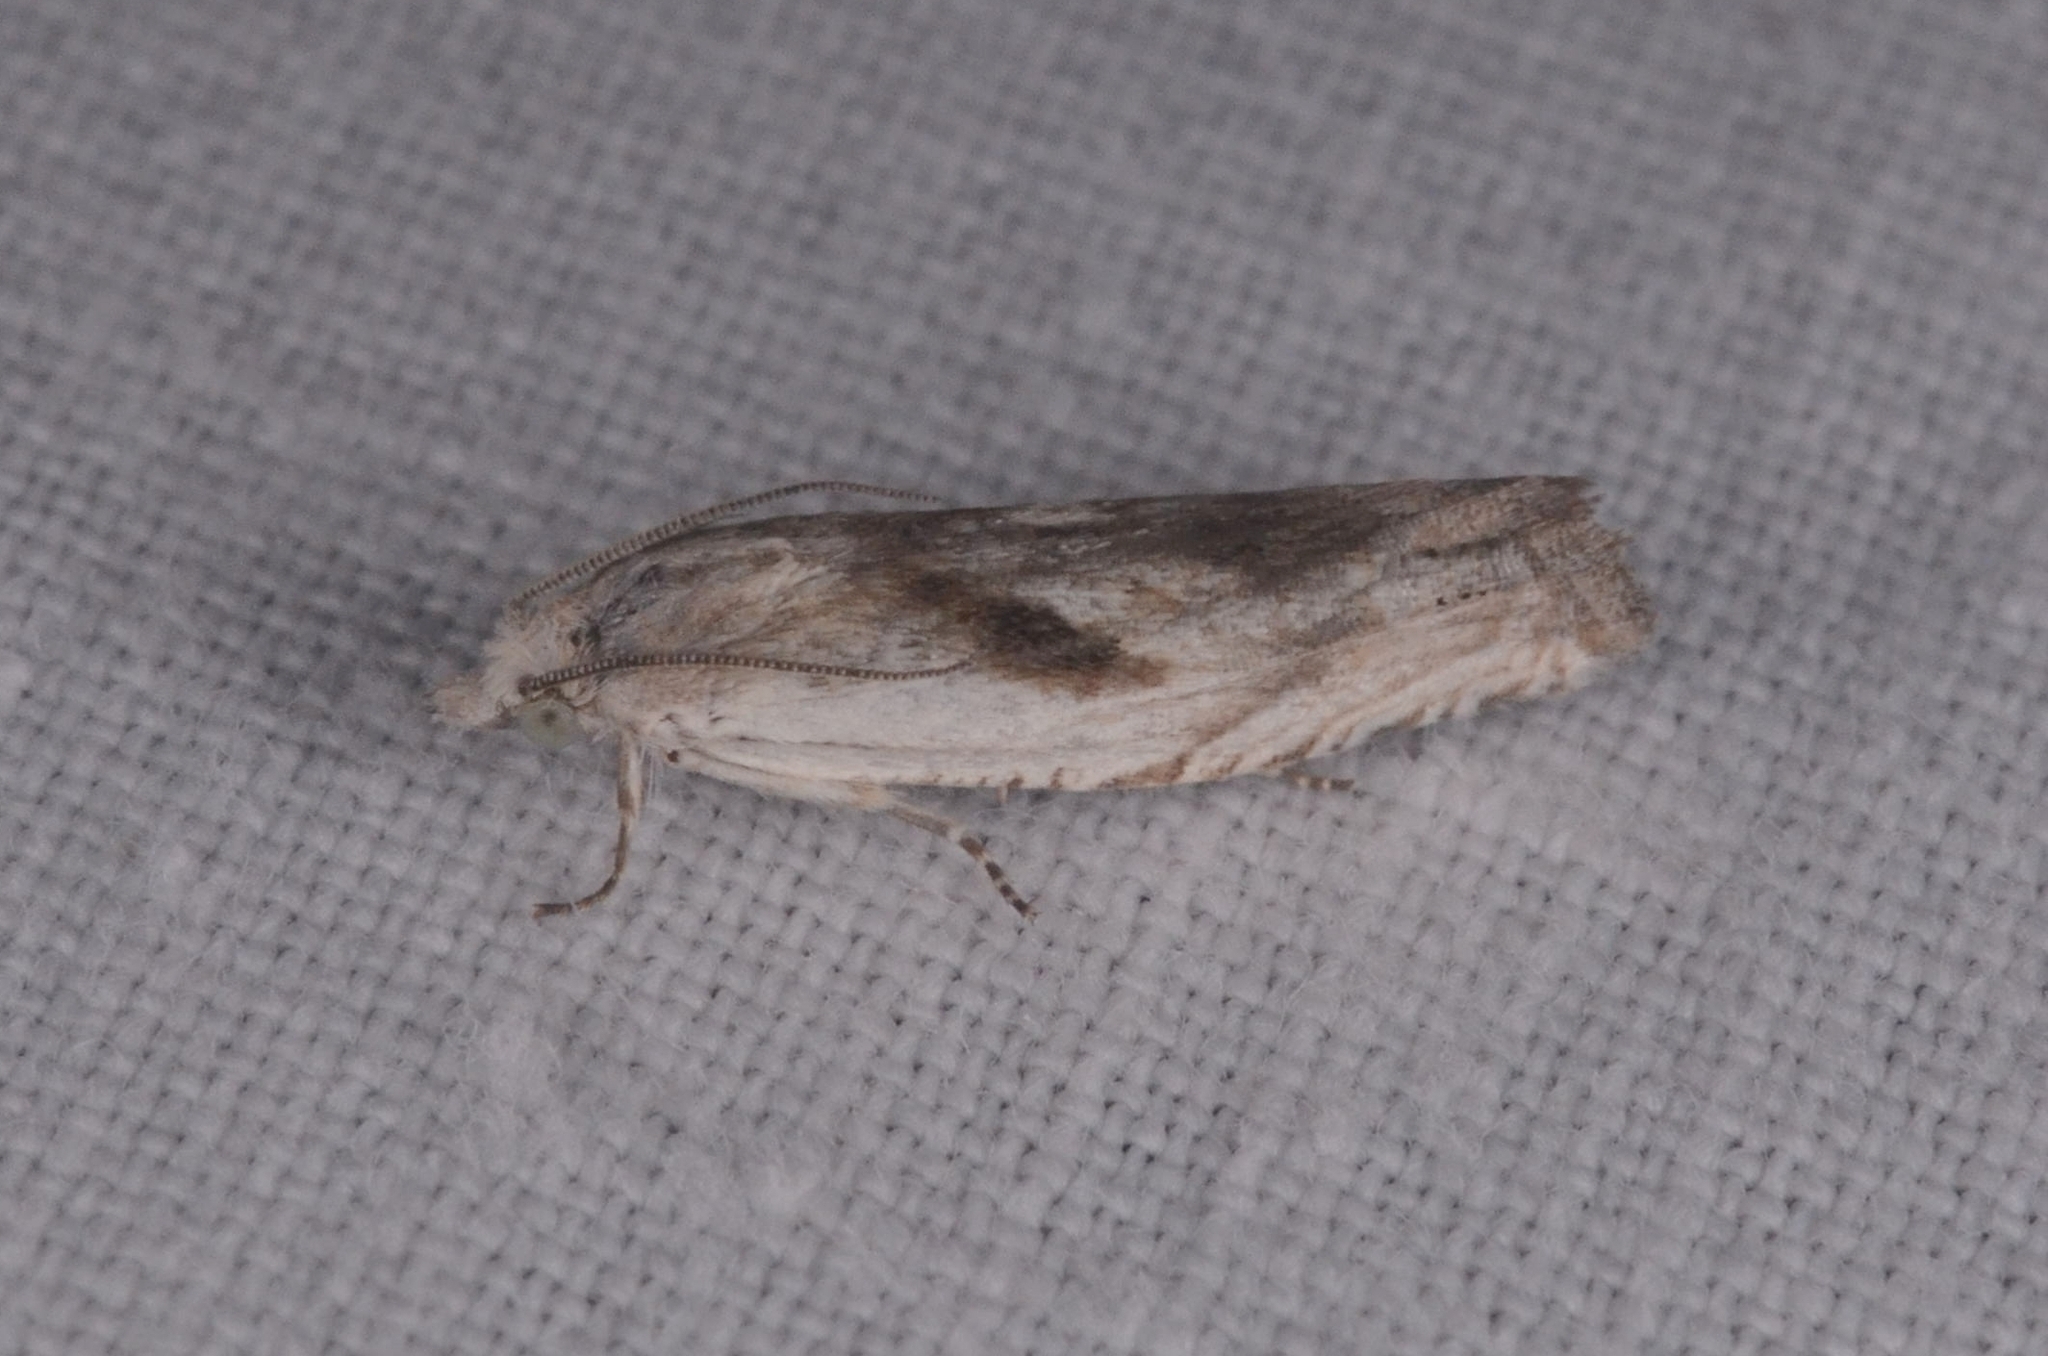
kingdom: Animalia
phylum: Arthropoda
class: Insecta
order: Lepidoptera
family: Tortricidae
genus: Eucosma
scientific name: Eucosma metzneriana
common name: Mugwort bell
